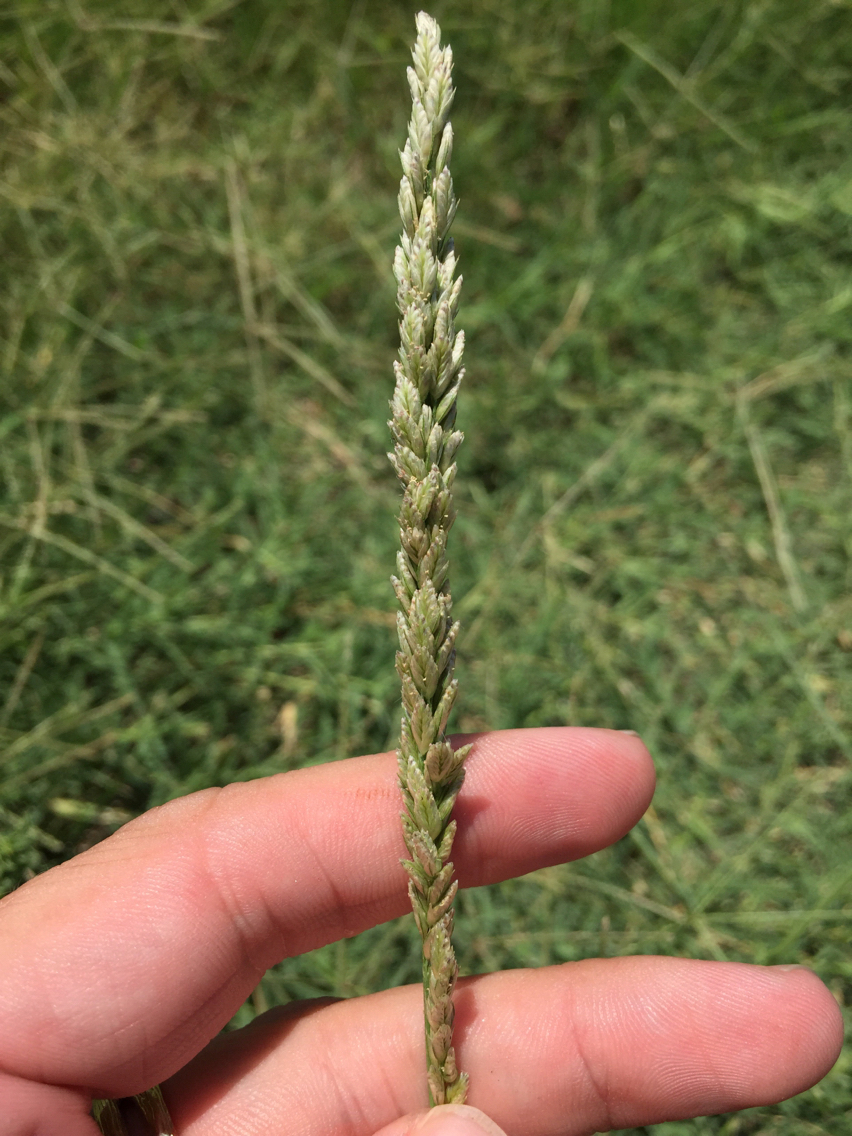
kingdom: Plantae
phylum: Tracheophyta
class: Liliopsida
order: Poales
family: Poaceae
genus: Tridens
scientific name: Tridens albescens
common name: White tridens
